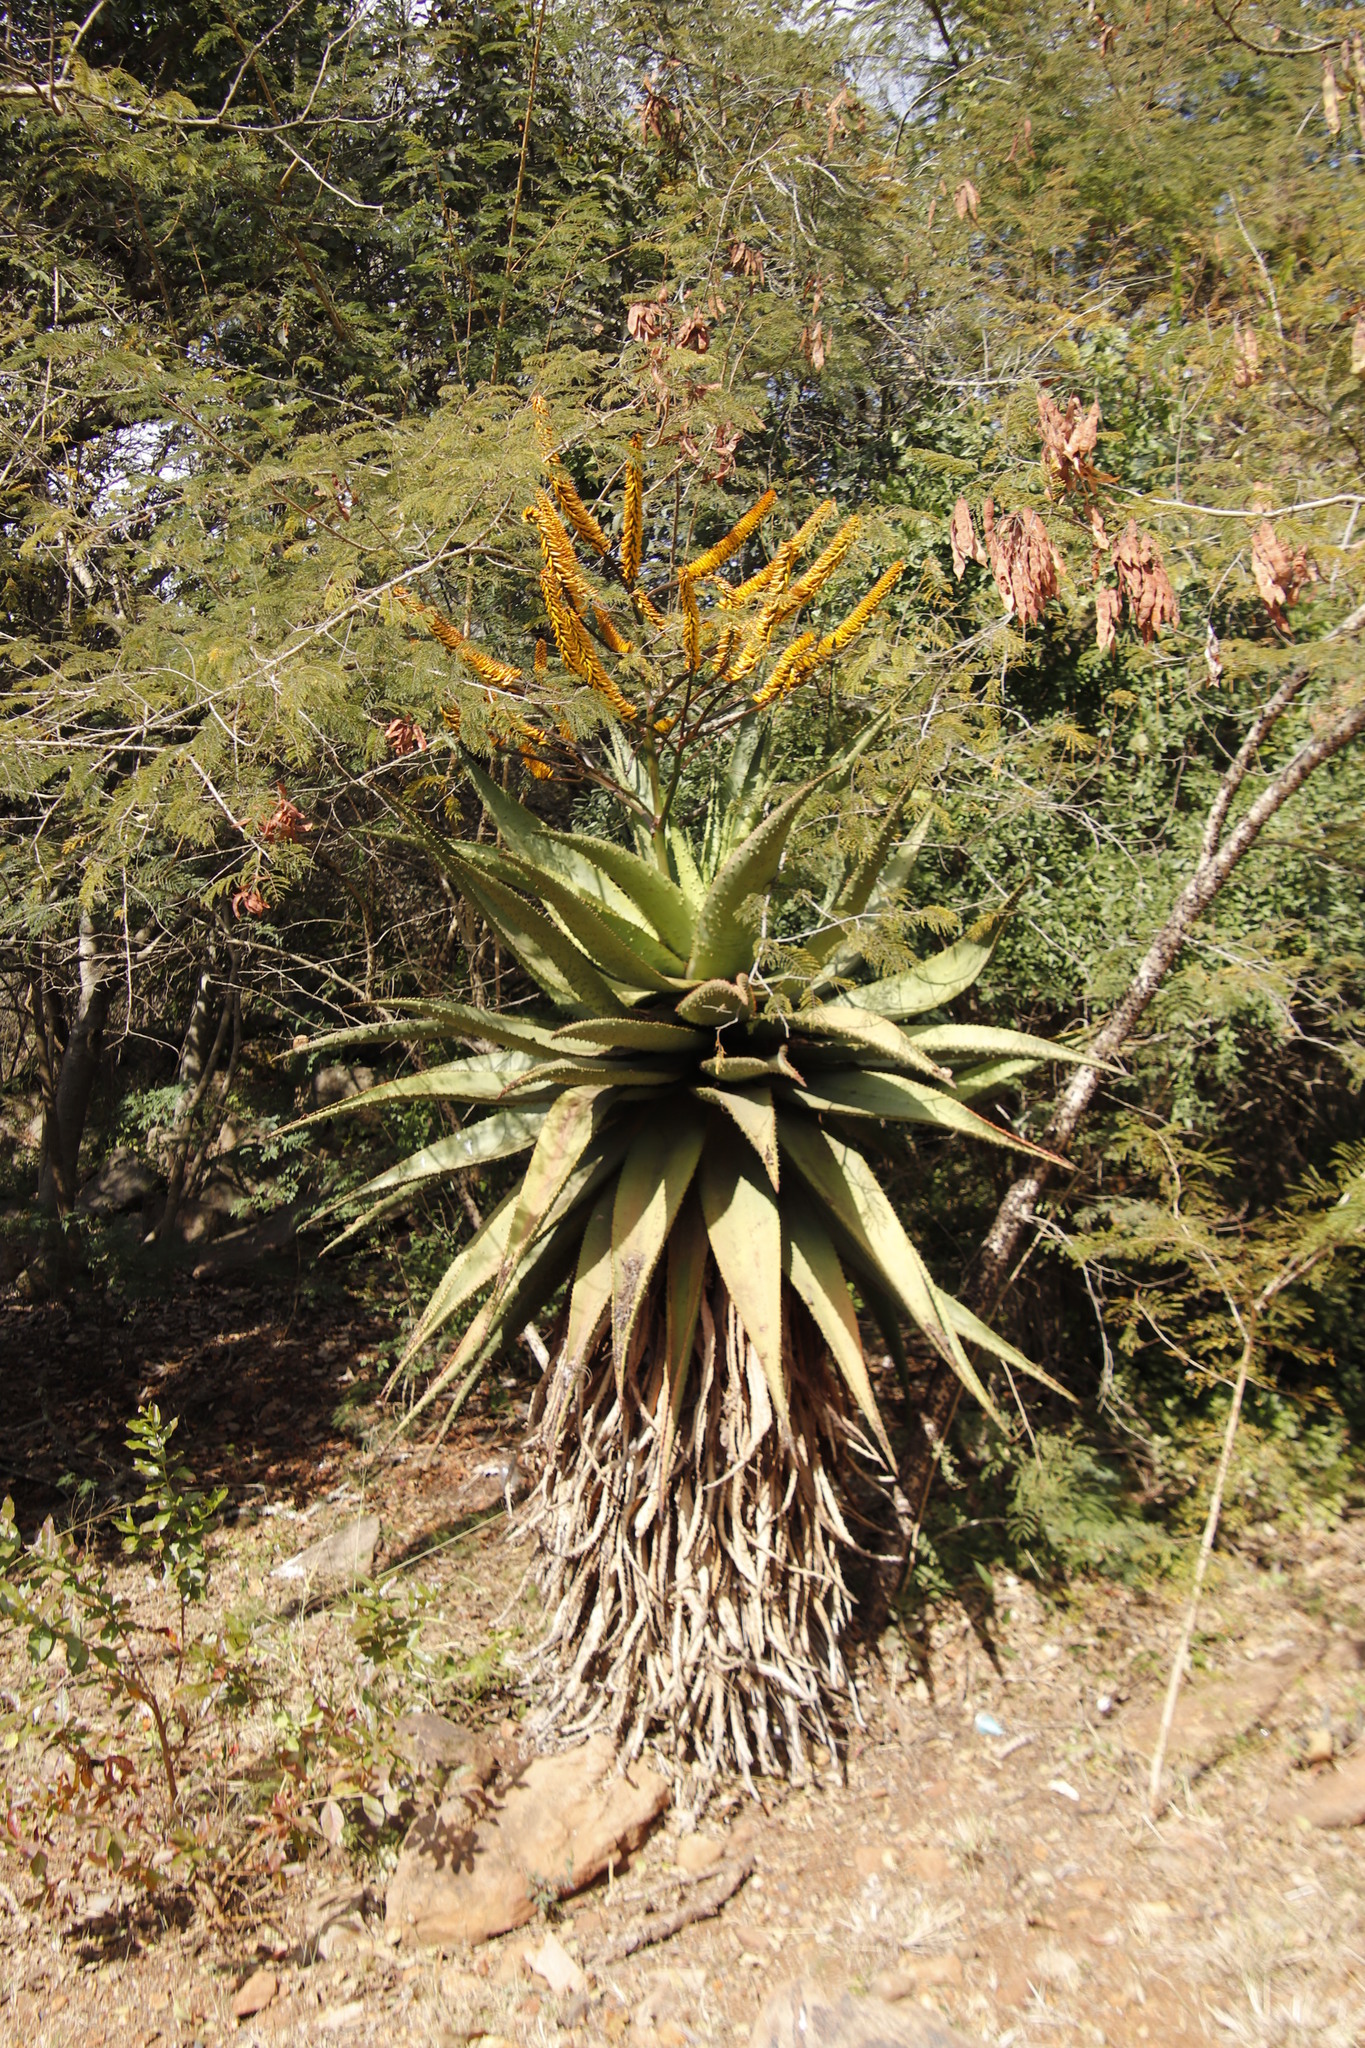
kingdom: Plantae
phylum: Tracheophyta
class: Liliopsida
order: Asparagales
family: Asphodelaceae
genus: Aloe
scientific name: Aloe marlothii
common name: Flat-flowered aloe
